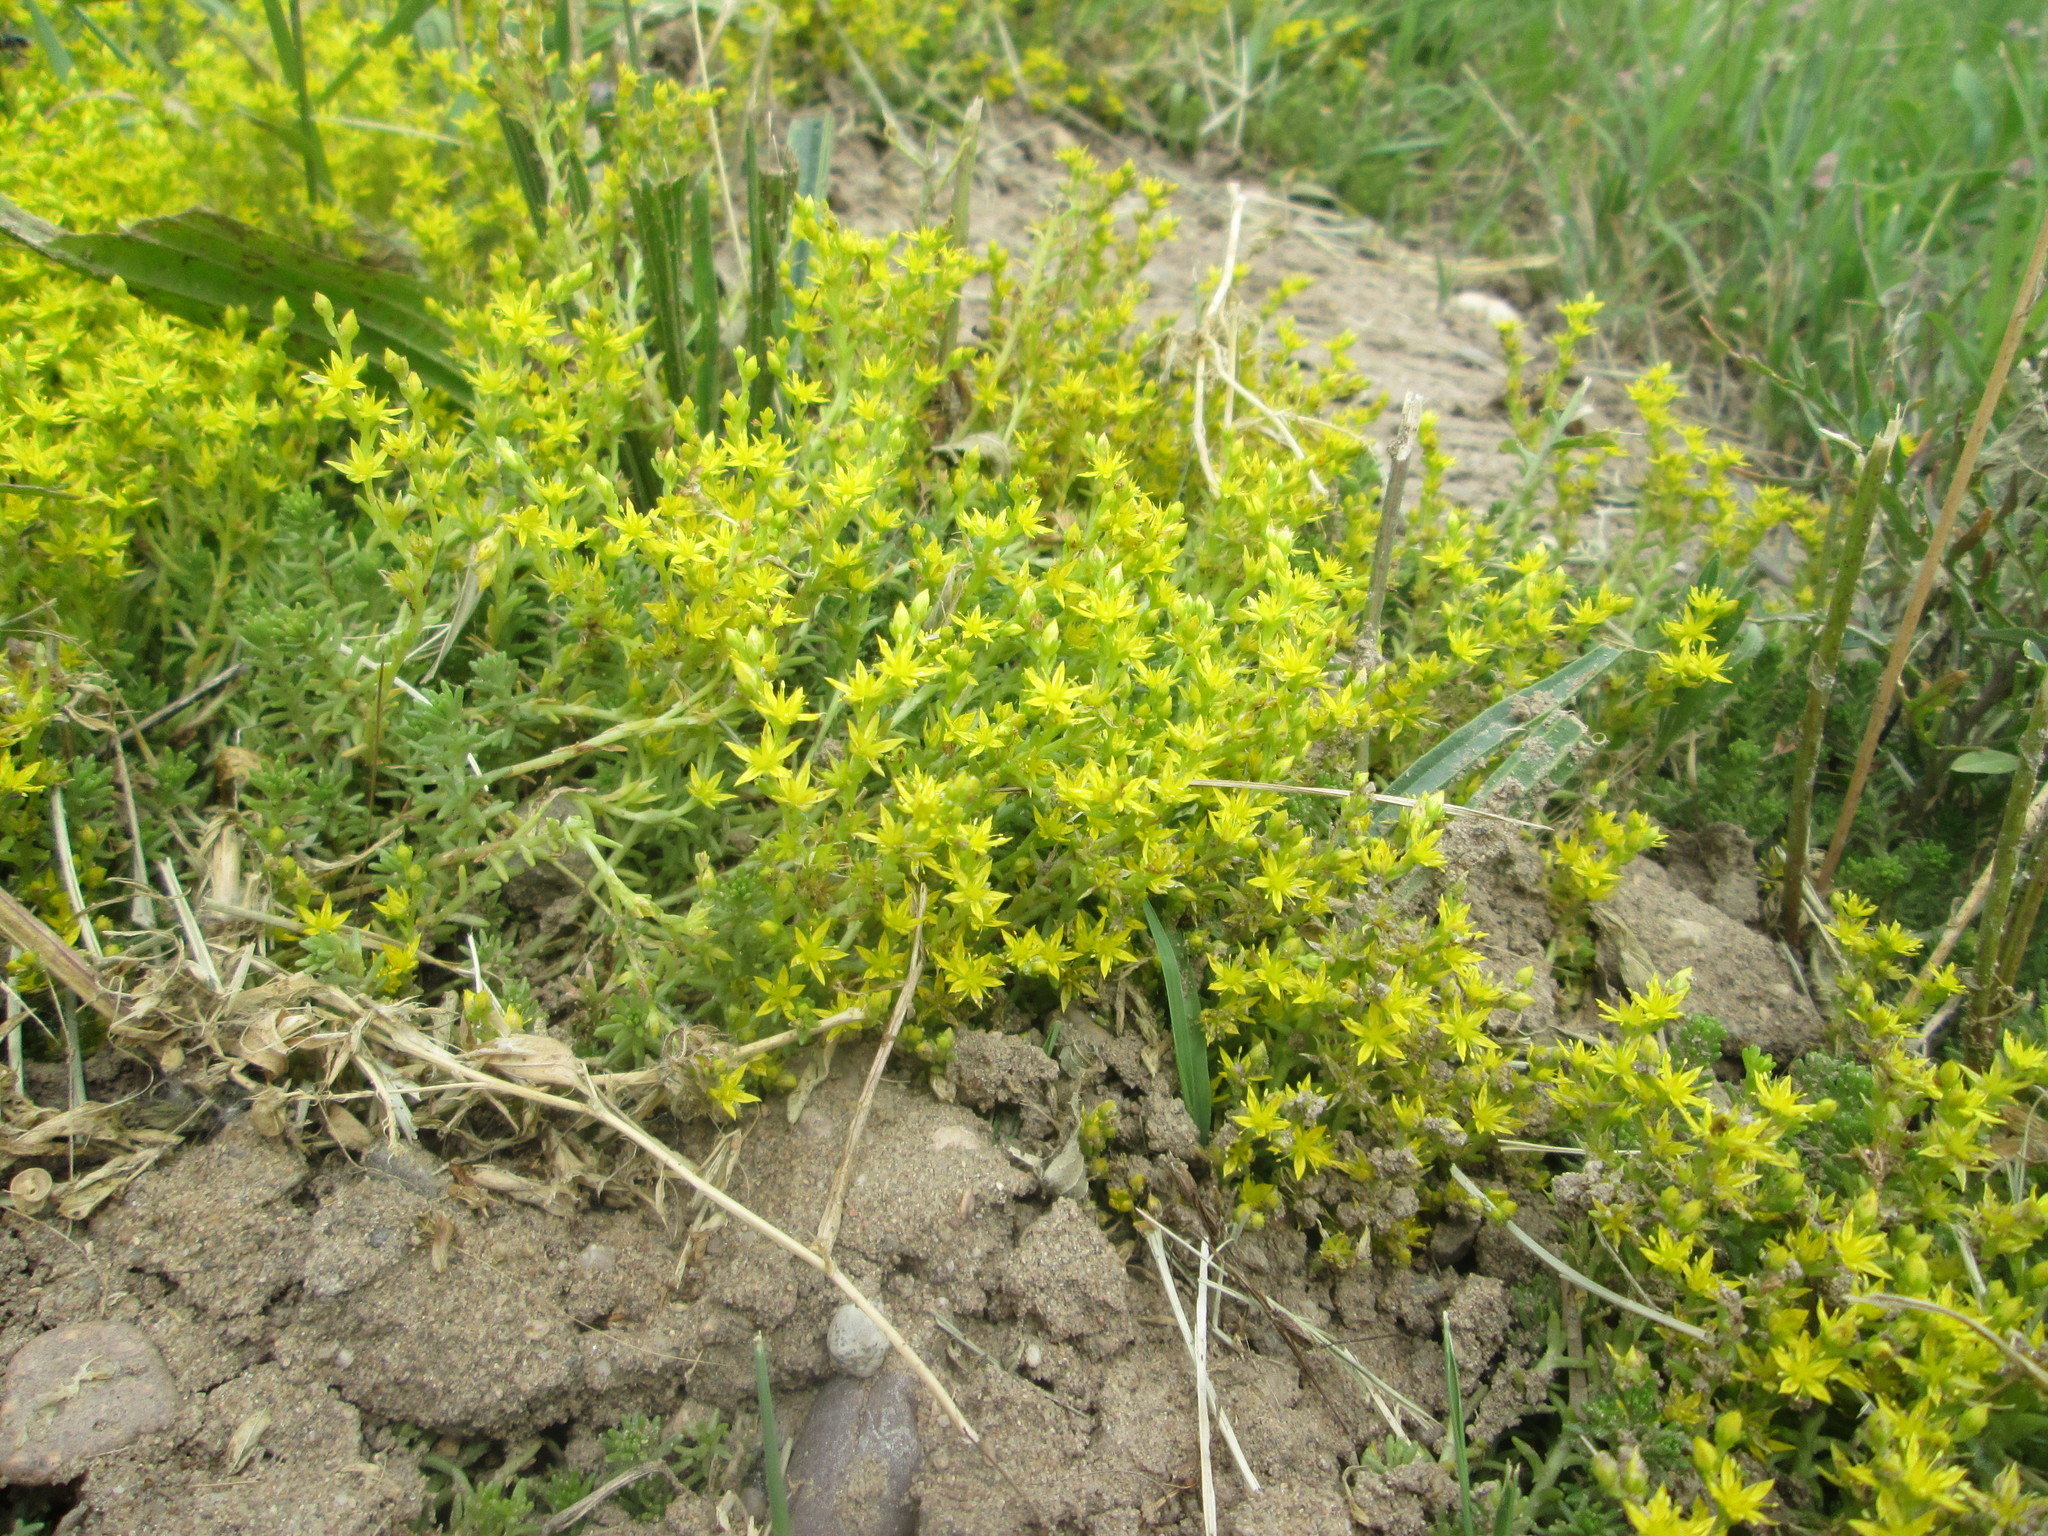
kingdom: Plantae
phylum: Tracheophyta
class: Magnoliopsida
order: Saxifragales
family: Crassulaceae
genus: Sedum
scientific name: Sedum sexangulare
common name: Tasteless stonecrop
